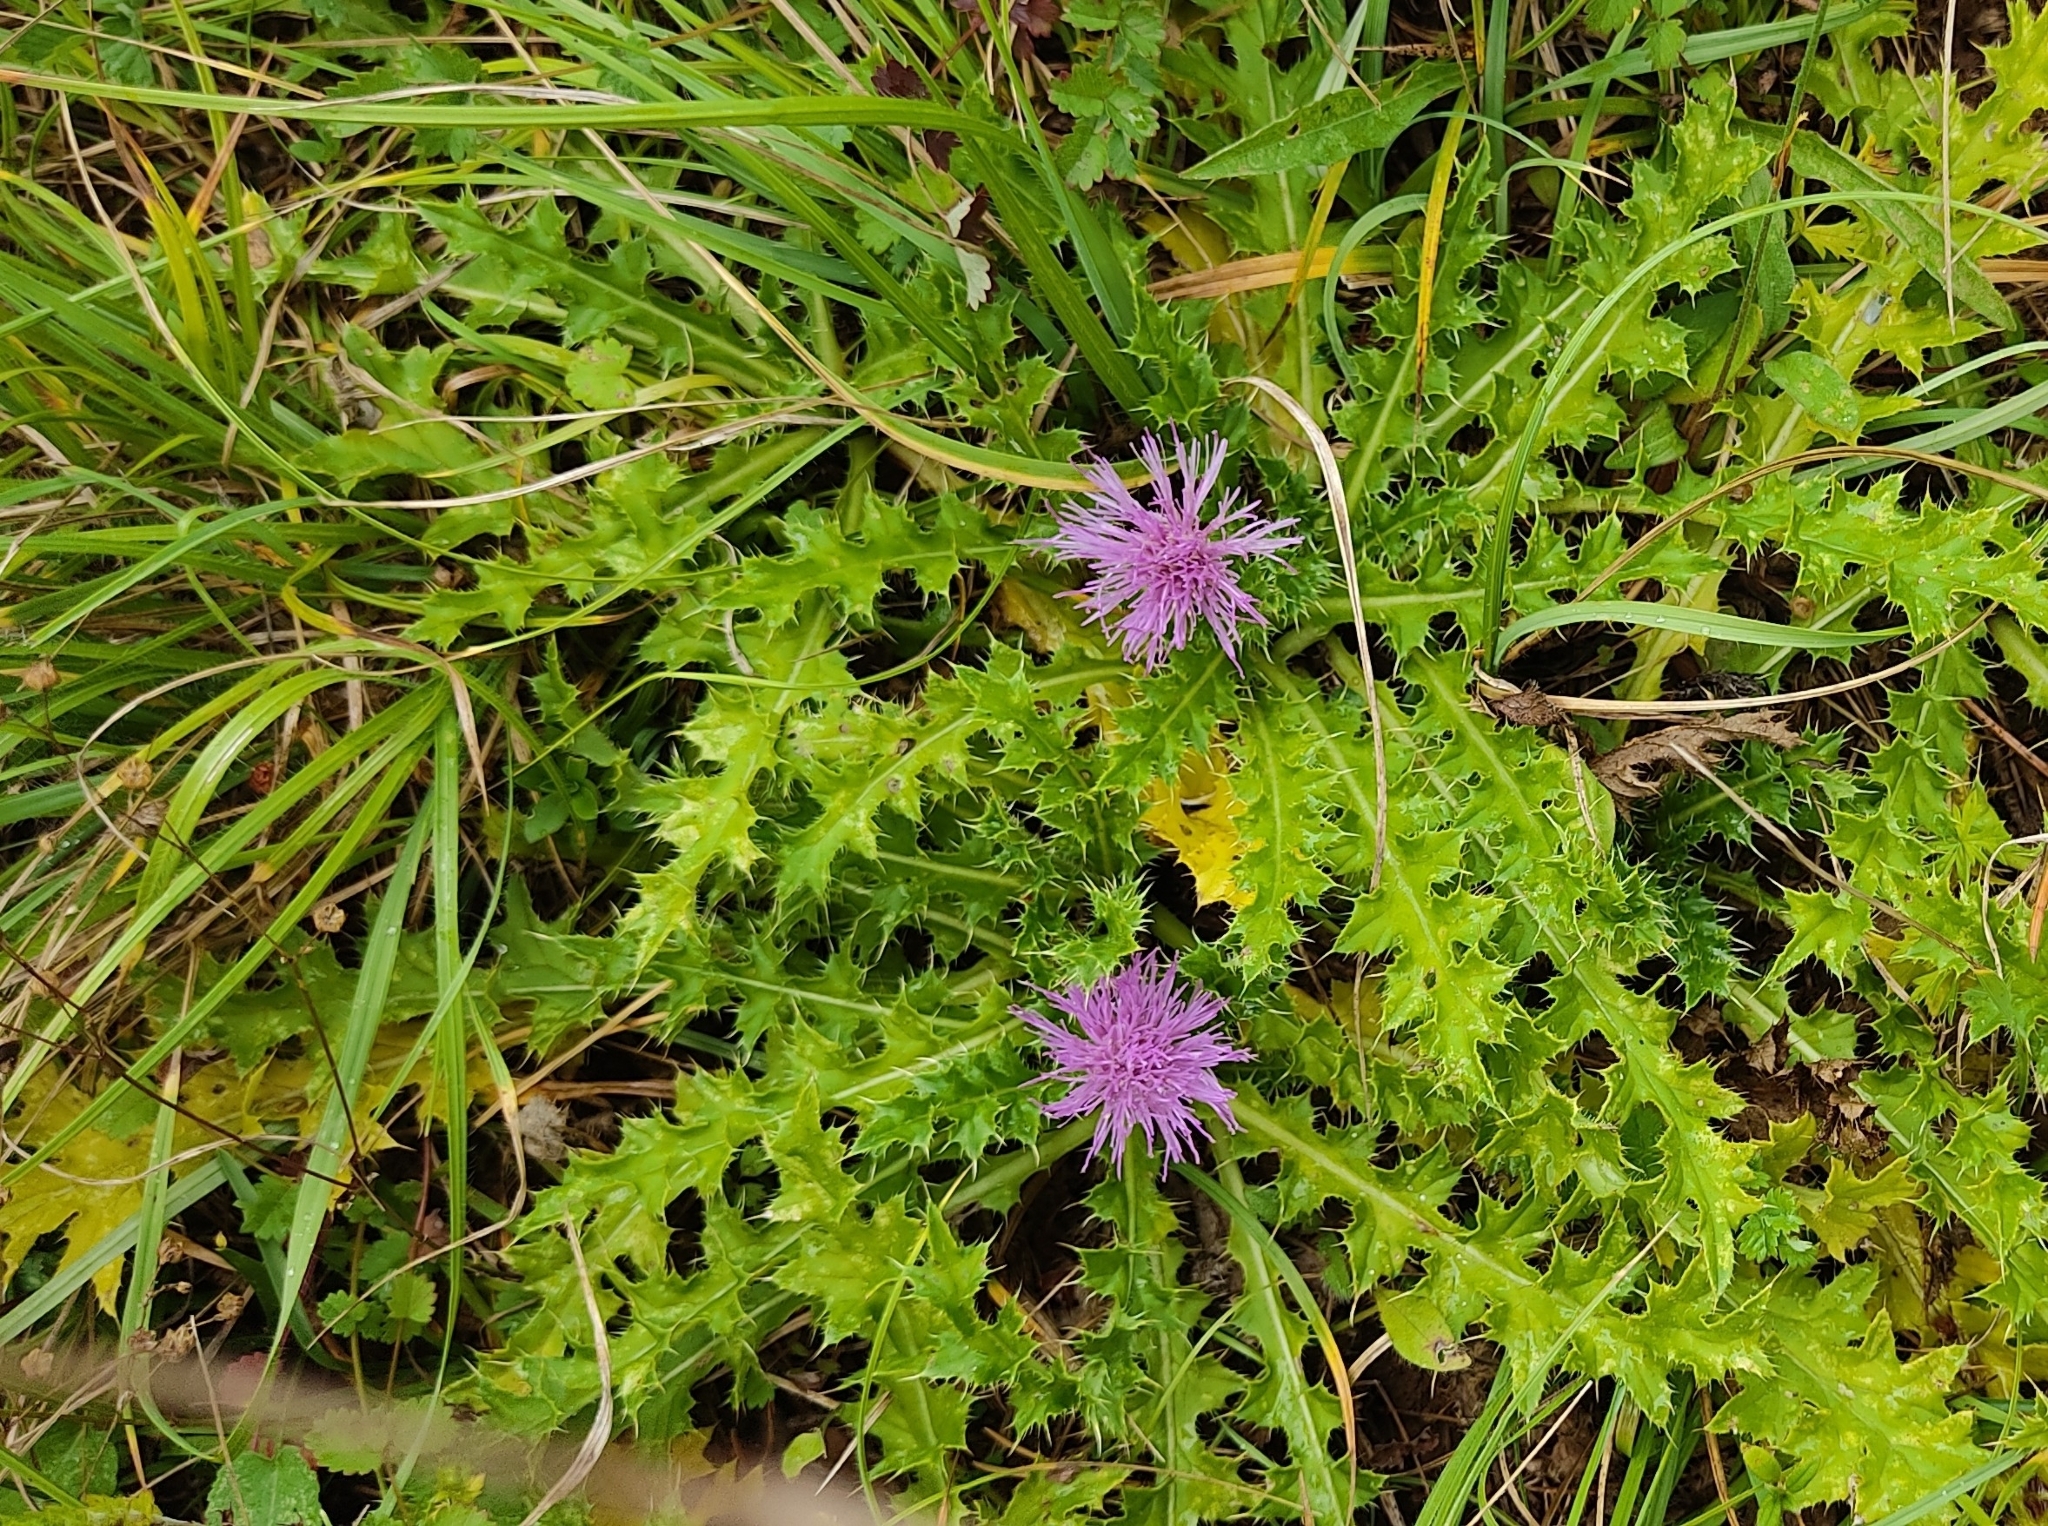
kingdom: Plantae
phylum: Tracheophyta
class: Magnoliopsida
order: Asterales
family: Asteraceae
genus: Cirsium
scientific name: Cirsium acaulon
